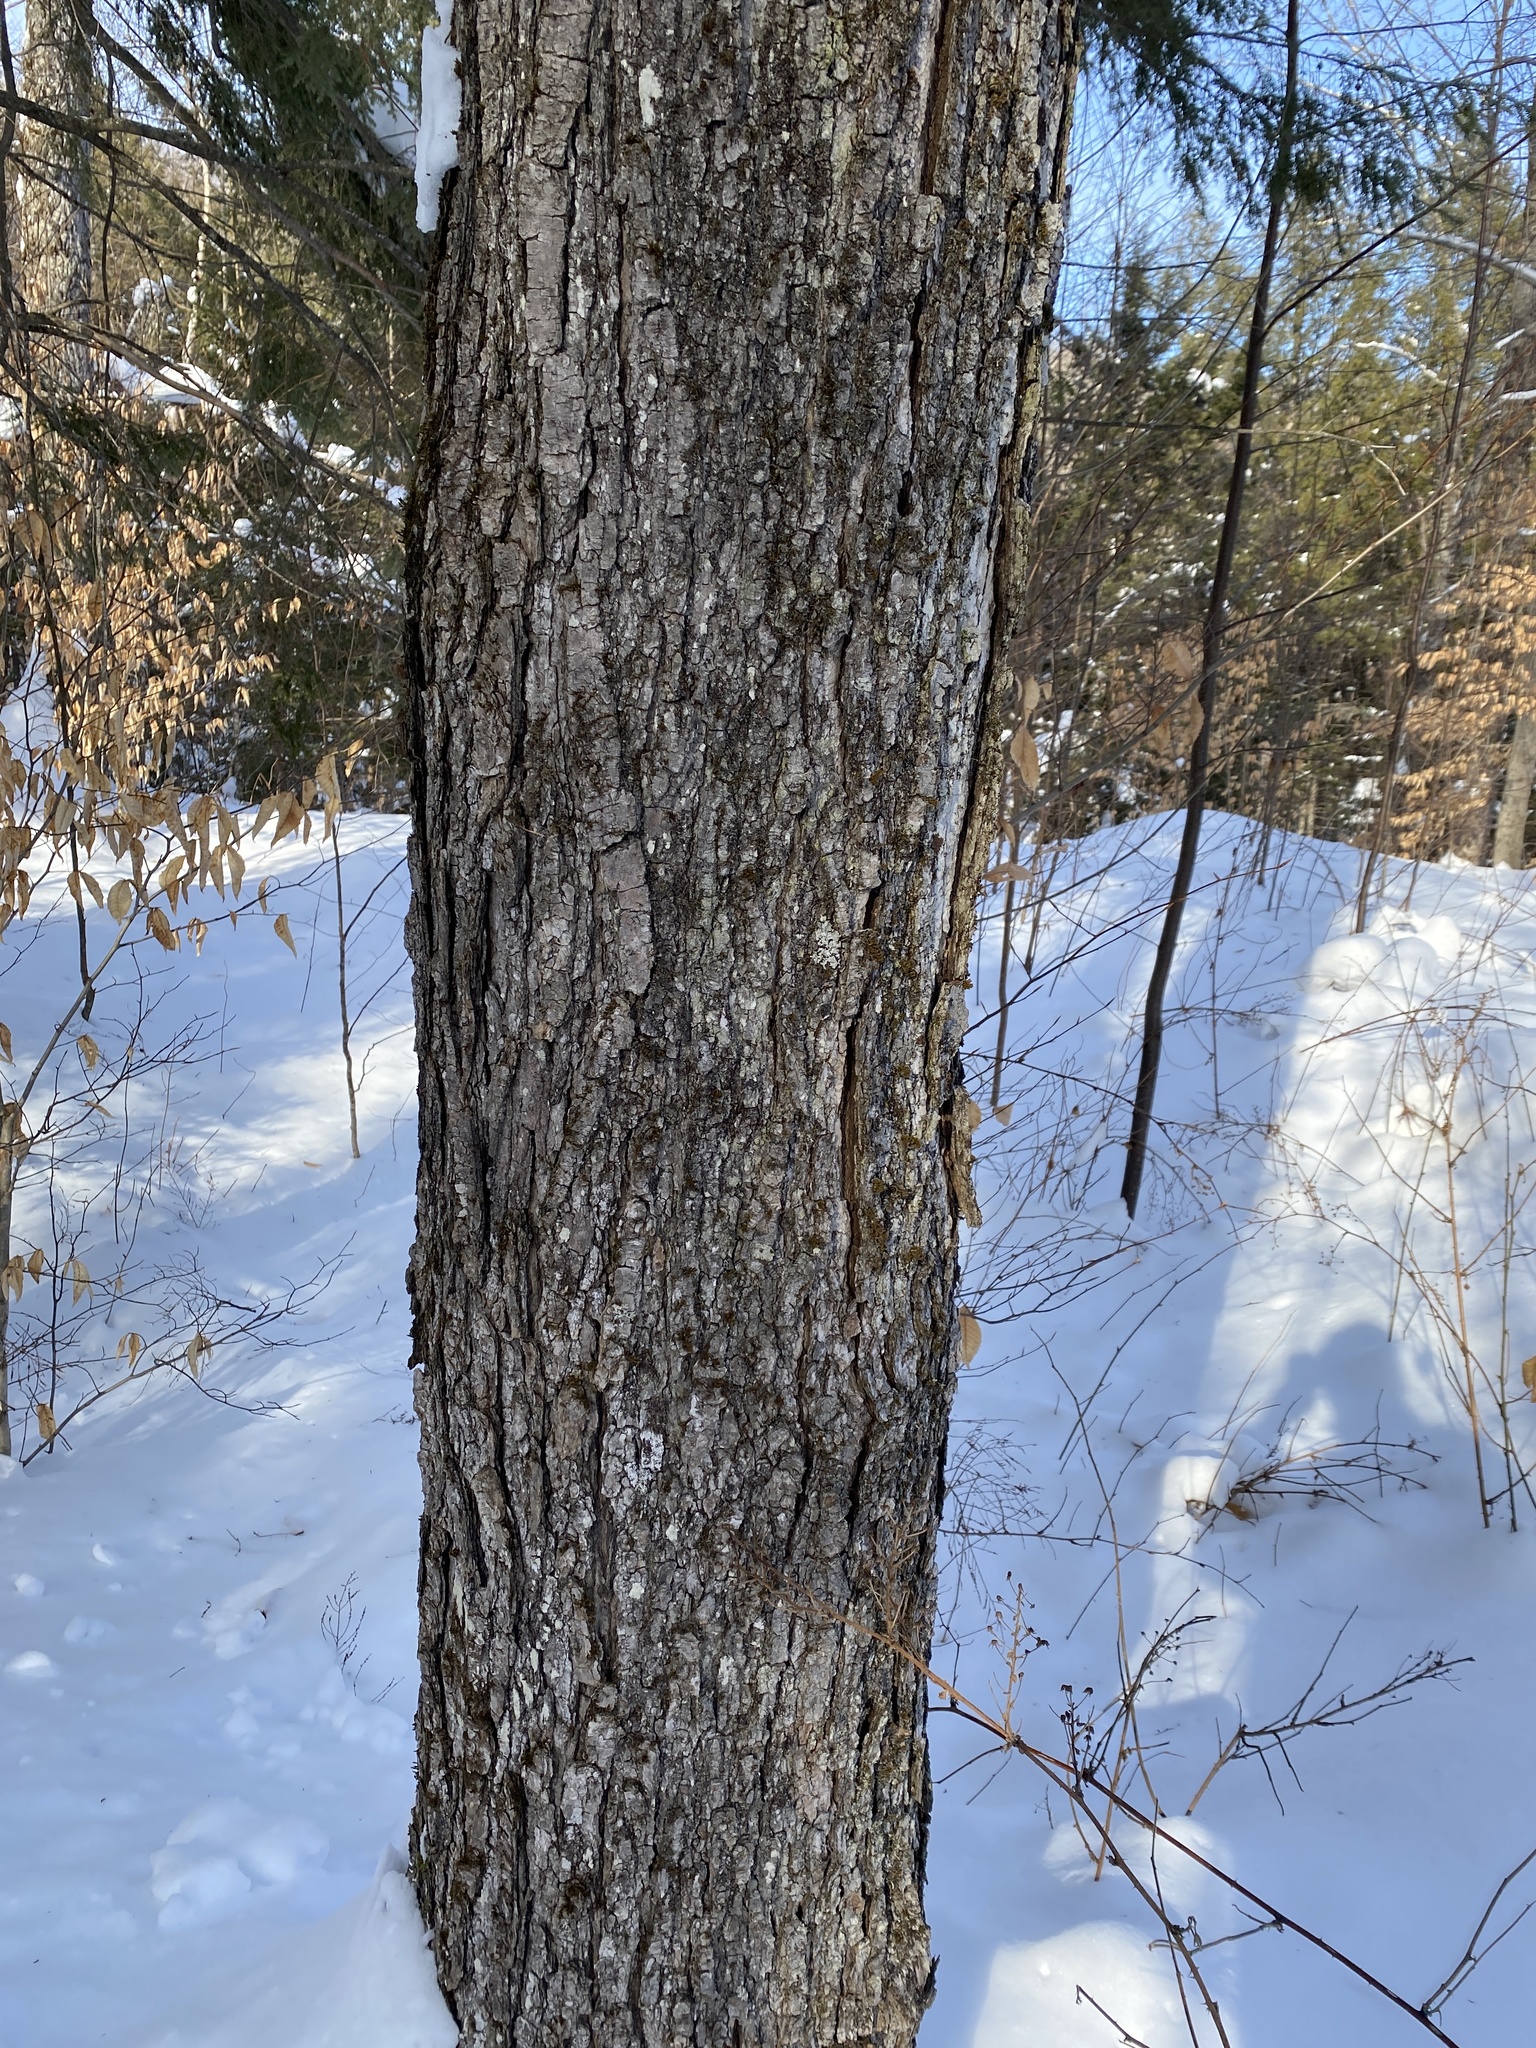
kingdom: Plantae
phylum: Tracheophyta
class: Magnoliopsida
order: Sapindales
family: Sapindaceae
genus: Acer
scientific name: Acer saccharum
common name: Sugar maple
